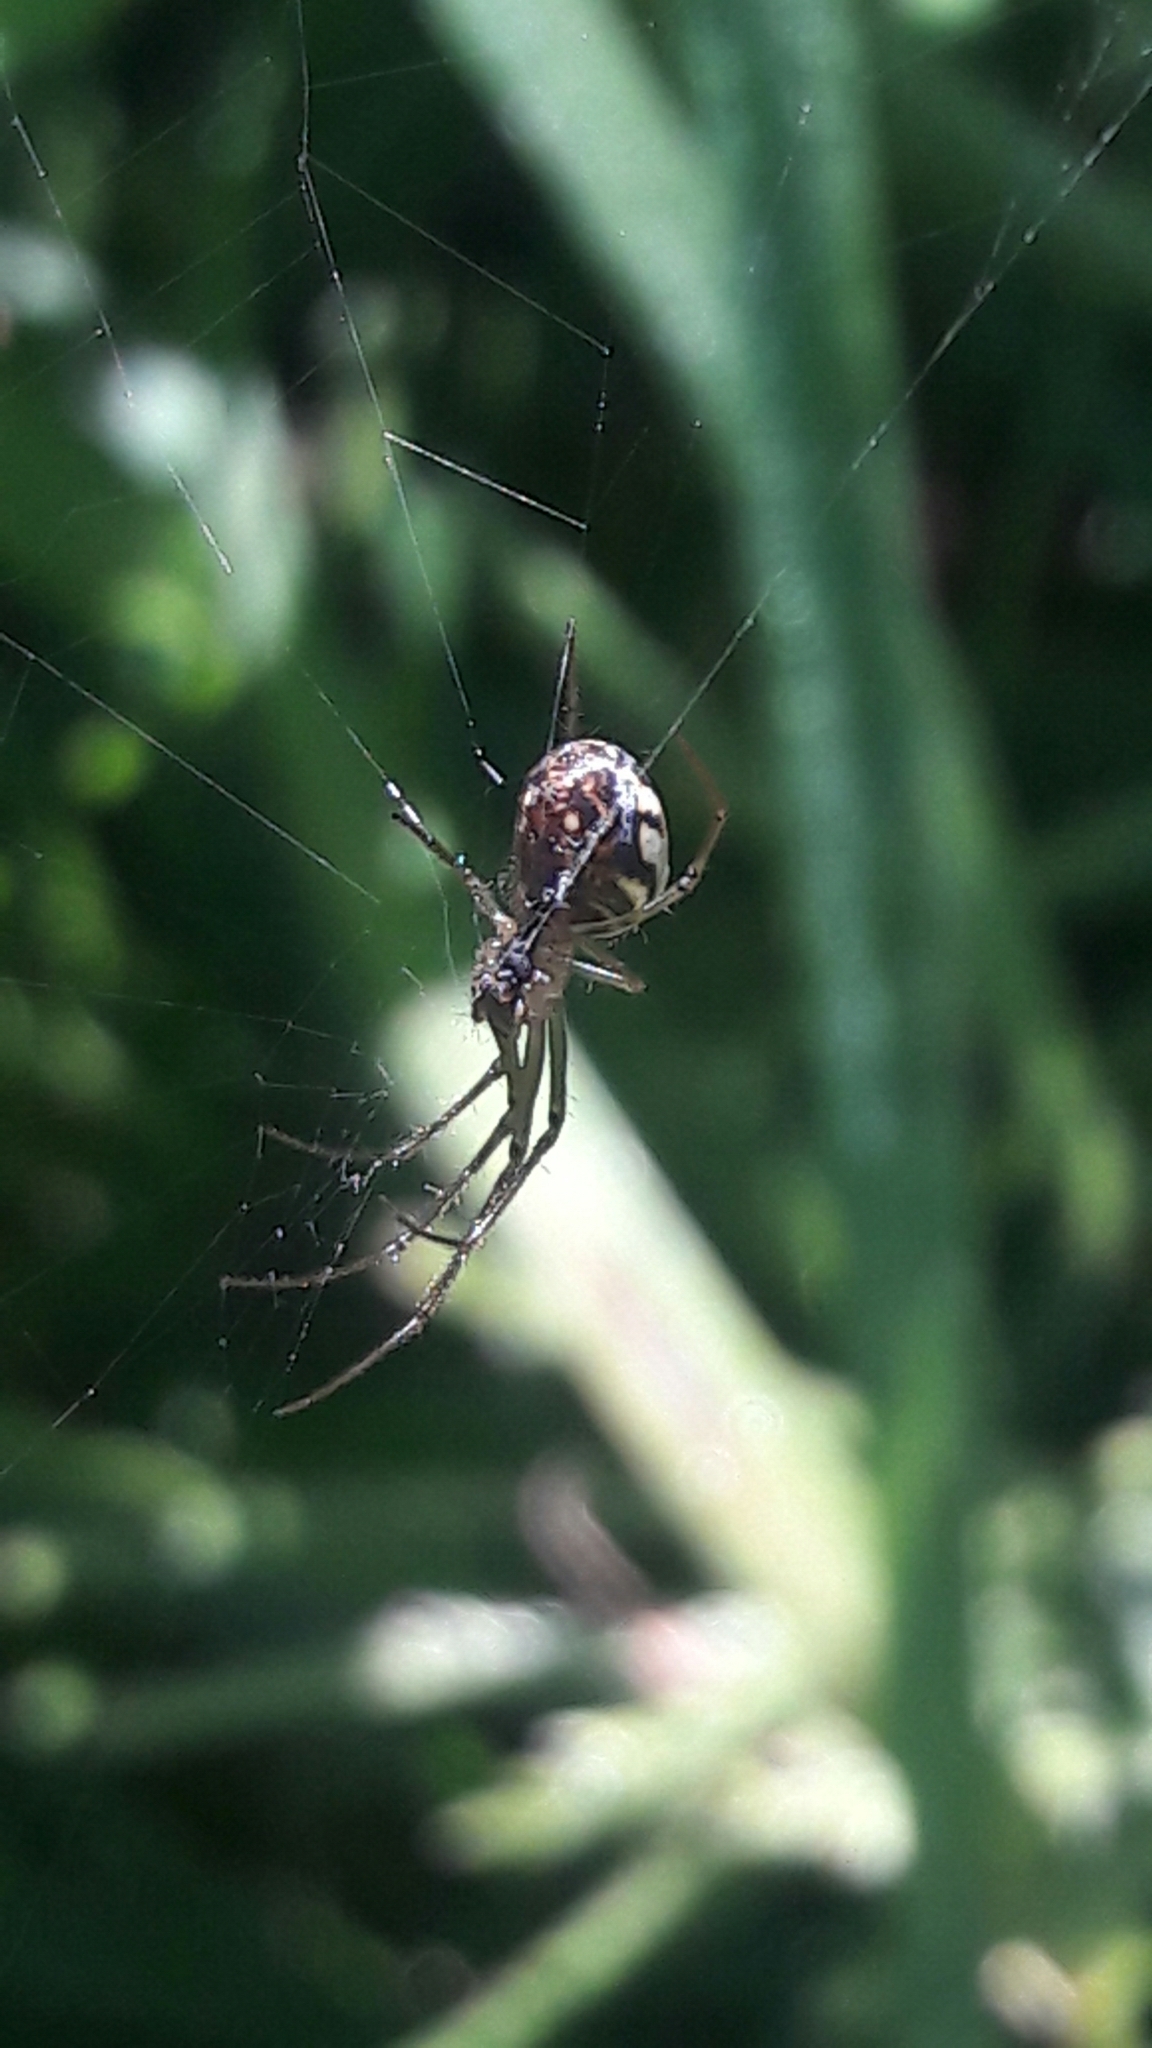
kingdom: Animalia
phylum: Arthropoda
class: Arachnida
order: Araneae
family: Tetragnathidae
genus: Leucauge
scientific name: Leucauge volupis
